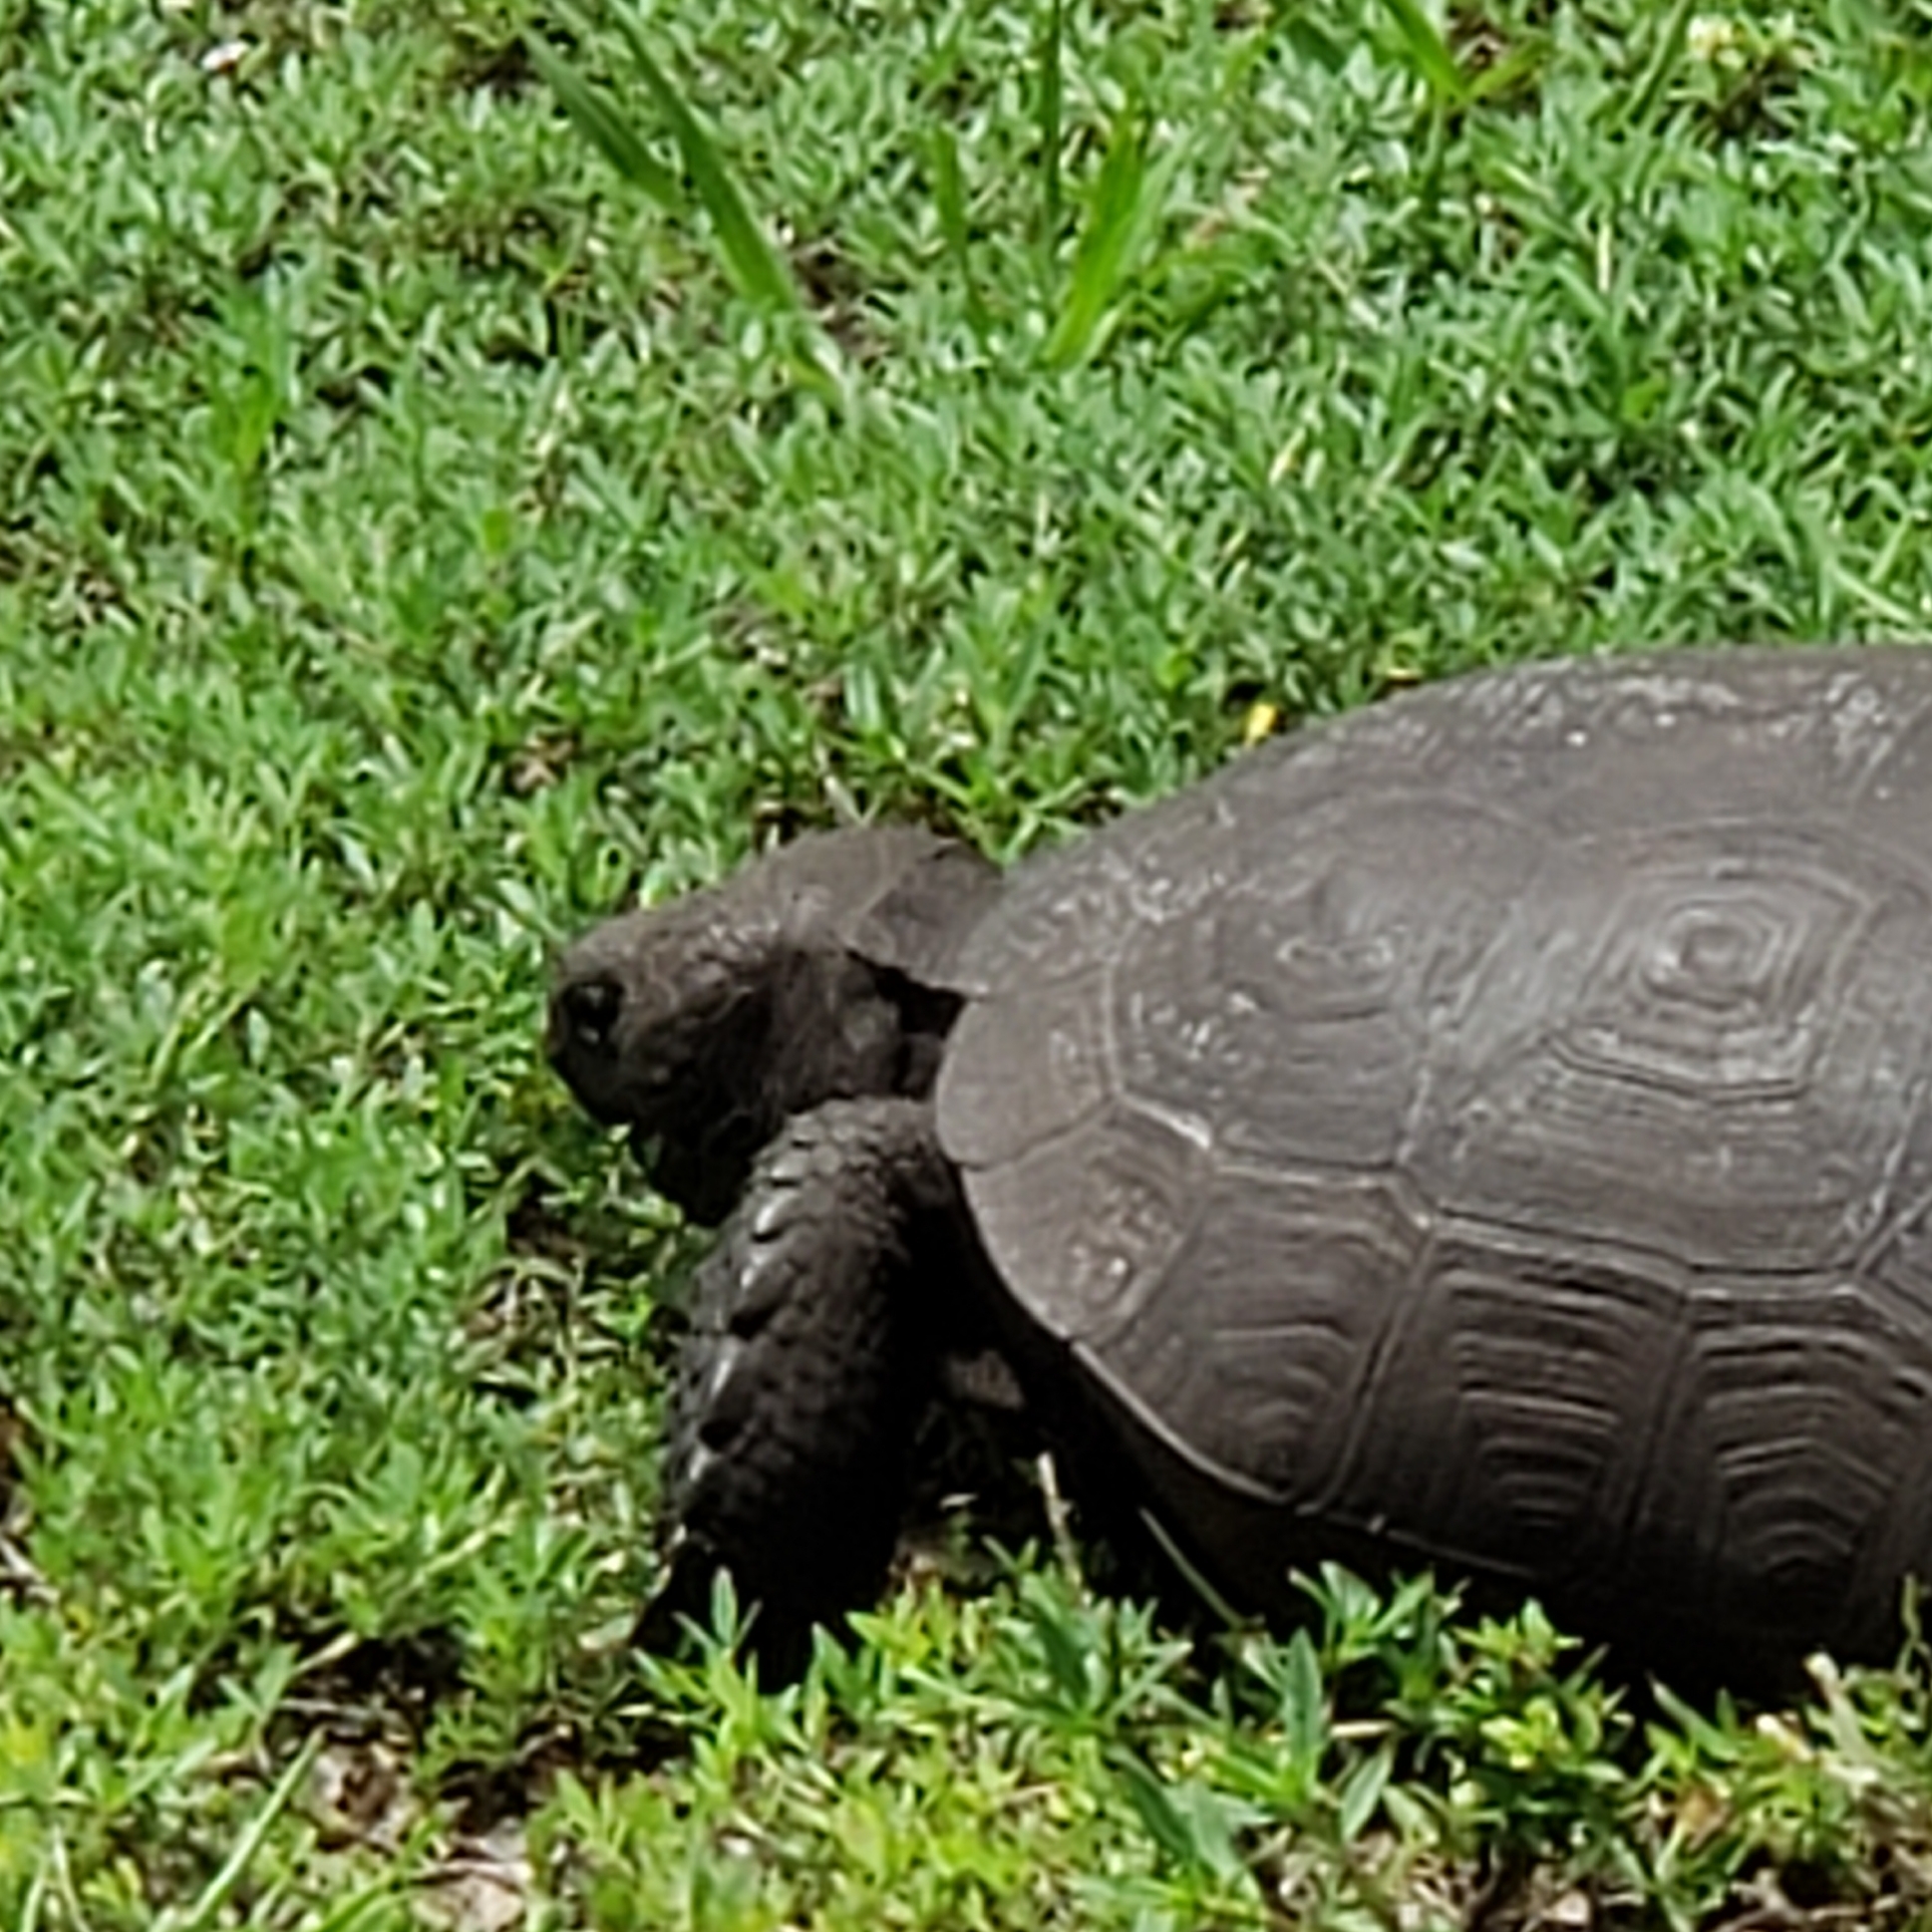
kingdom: Animalia
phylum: Chordata
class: Testudines
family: Testudinidae
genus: Gopherus
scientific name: Gopherus polyphemus
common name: Florida gopher tortoise
